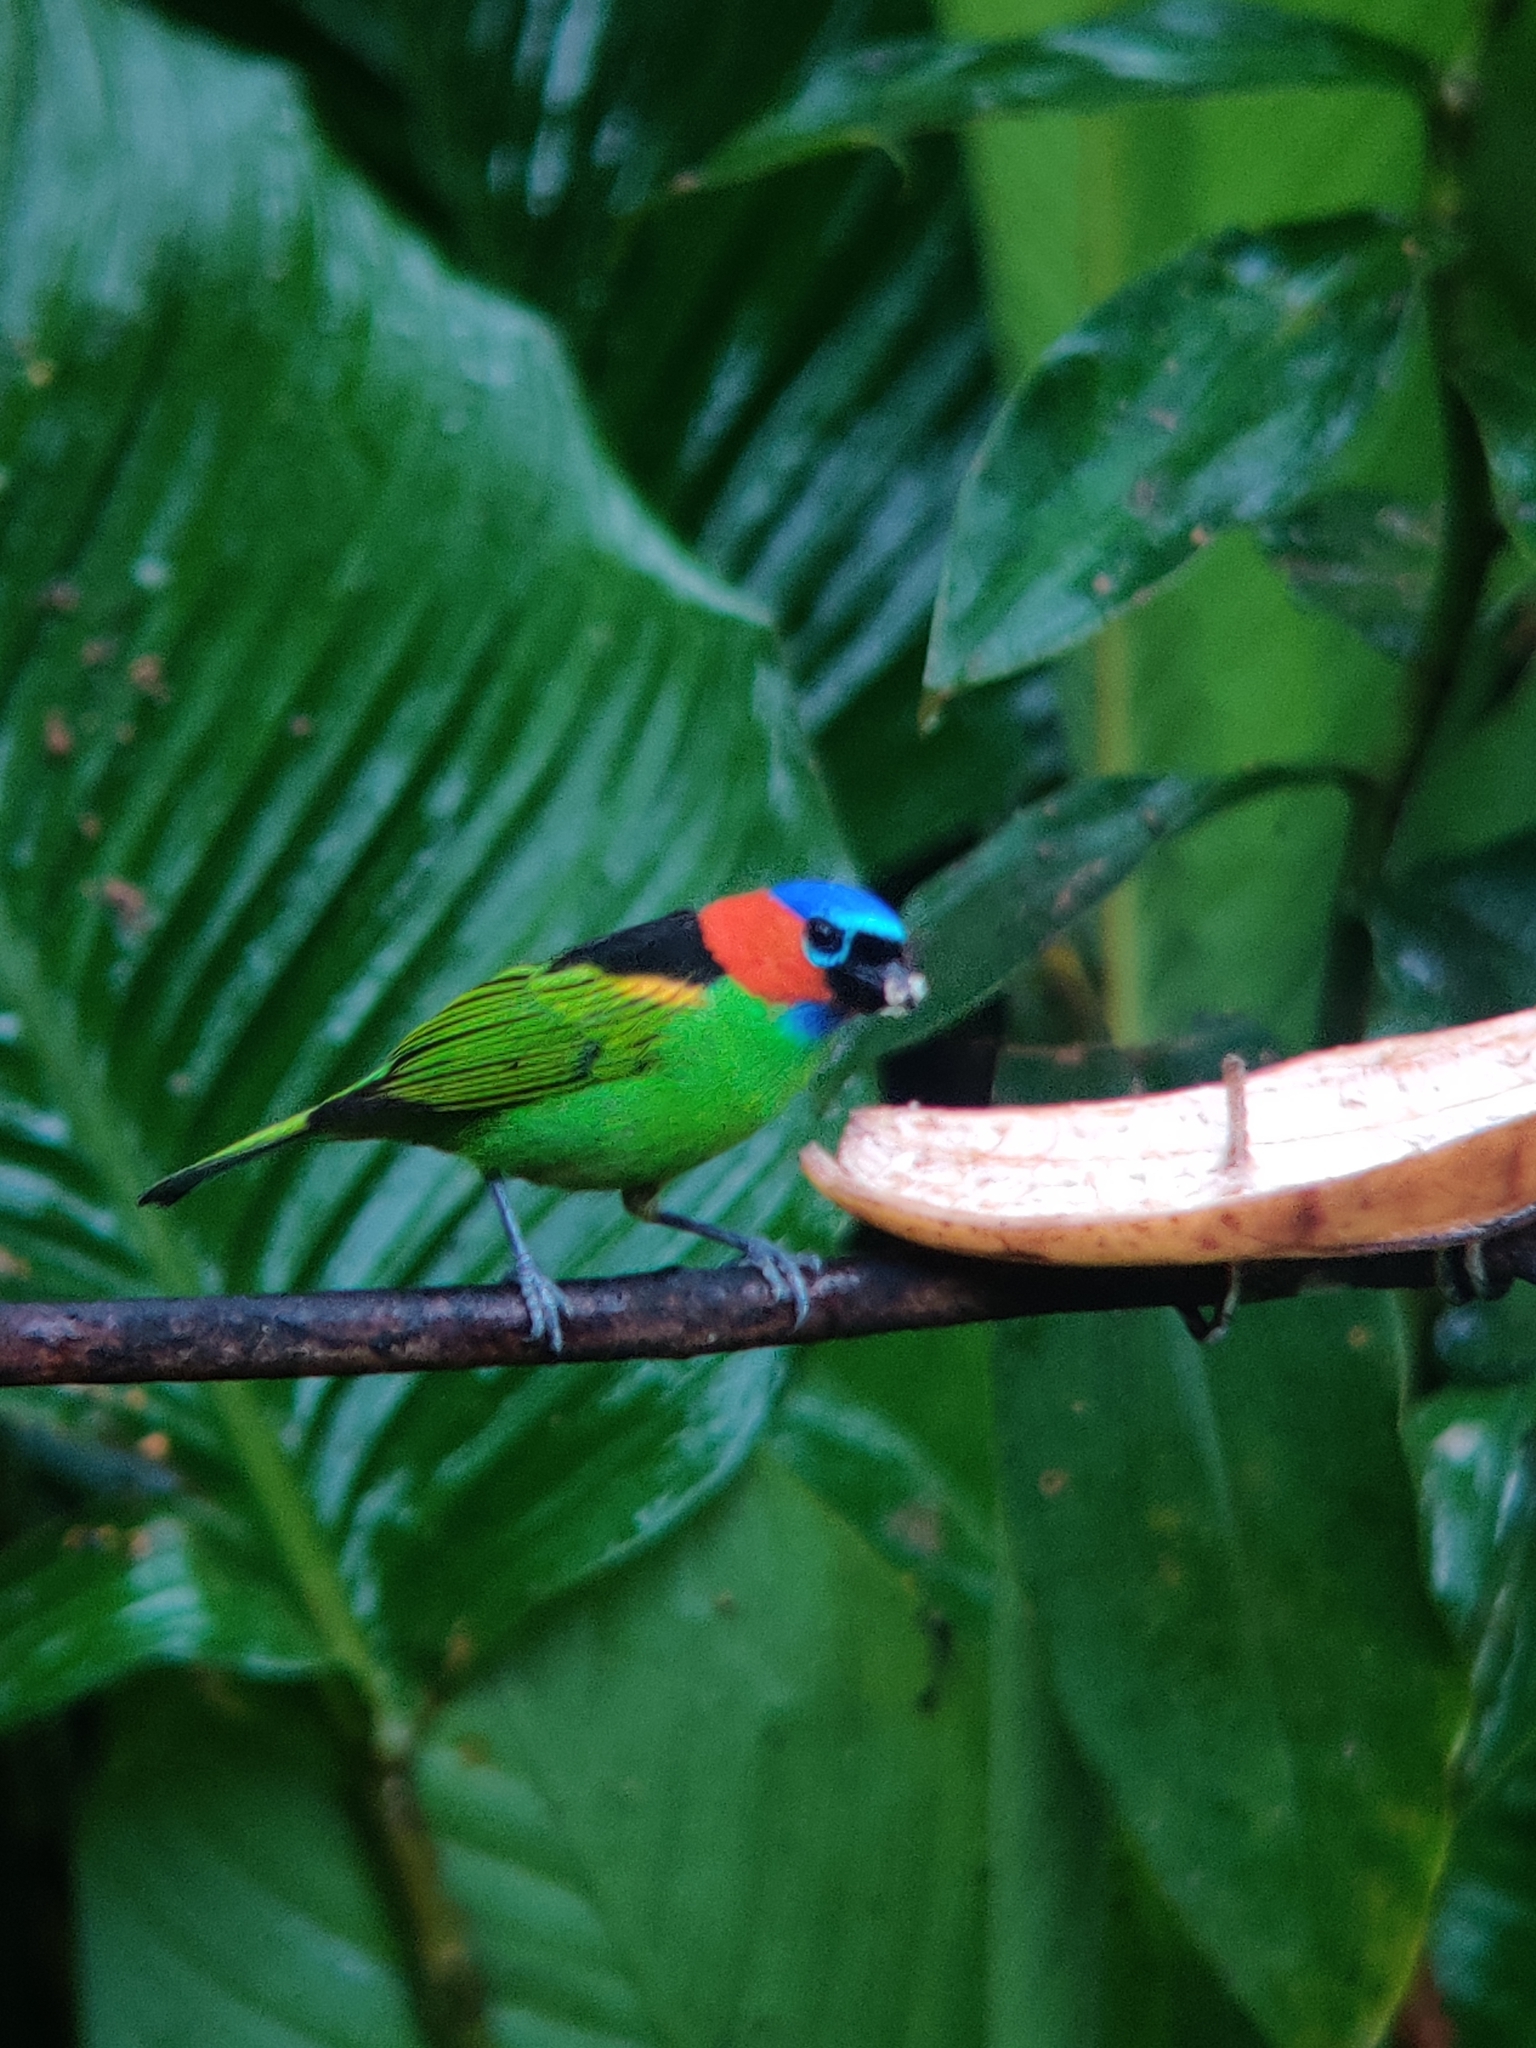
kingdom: Animalia
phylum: Chordata
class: Aves
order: Passeriformes
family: Thraupidae
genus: Tangara
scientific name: Tangara cyanocephala
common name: Red-necked tanager
